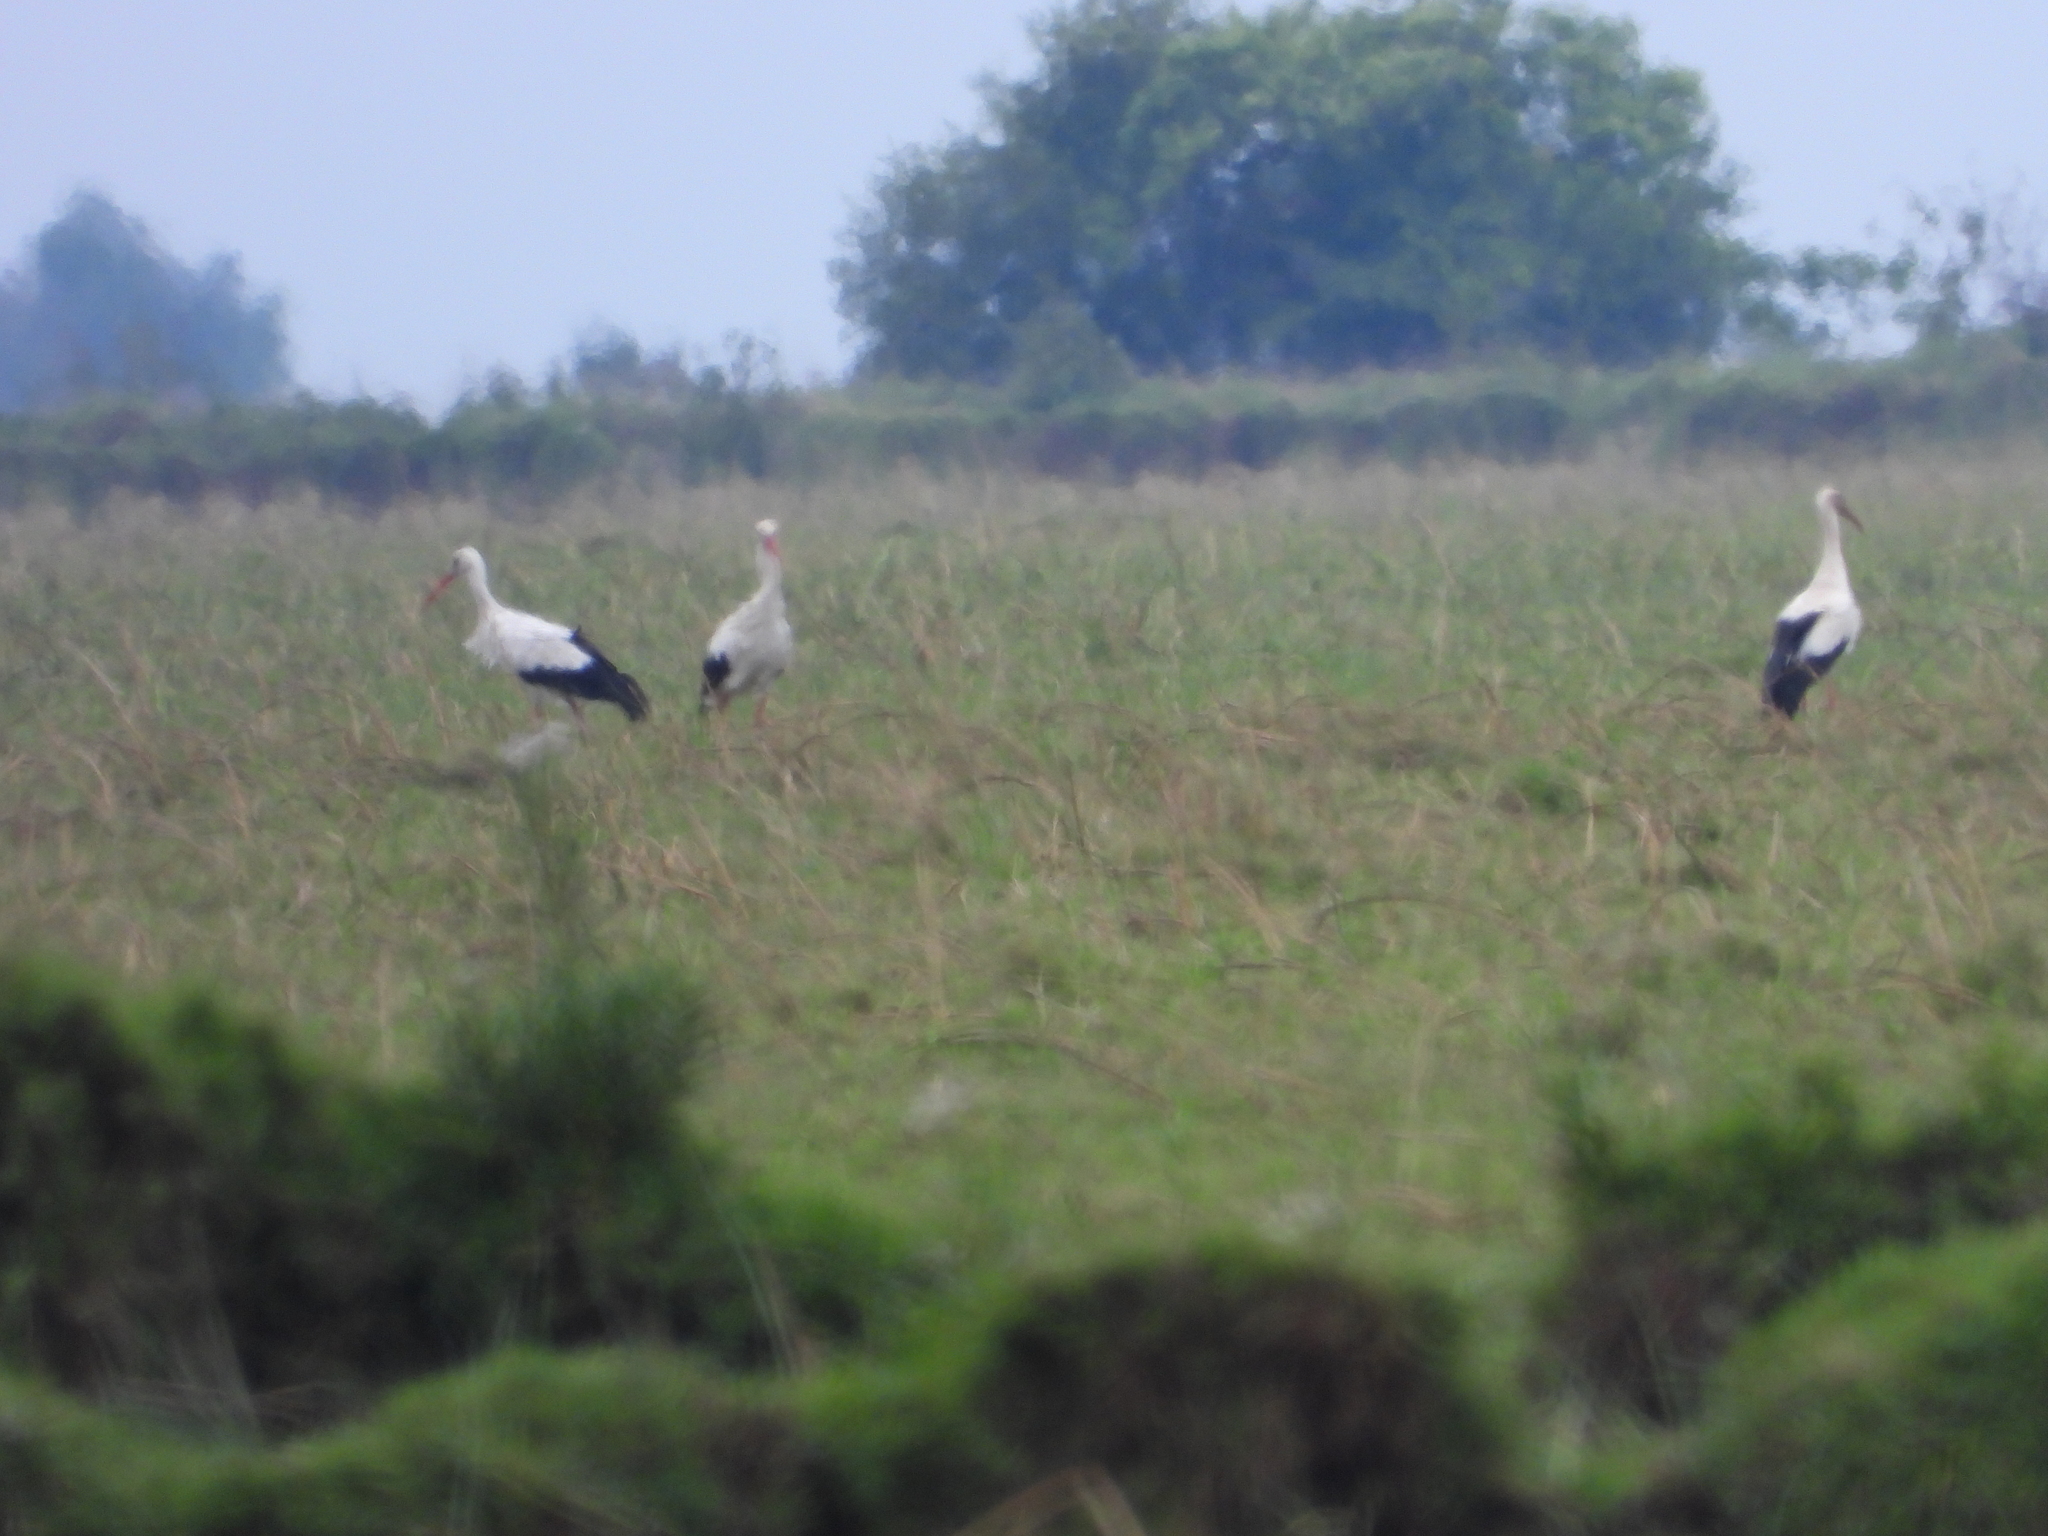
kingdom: Animalia
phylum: Chordata
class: Aves
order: Ciconiiformes
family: Ciconiidae
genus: Ciconia
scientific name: Ciconia ciconia
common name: White stork
